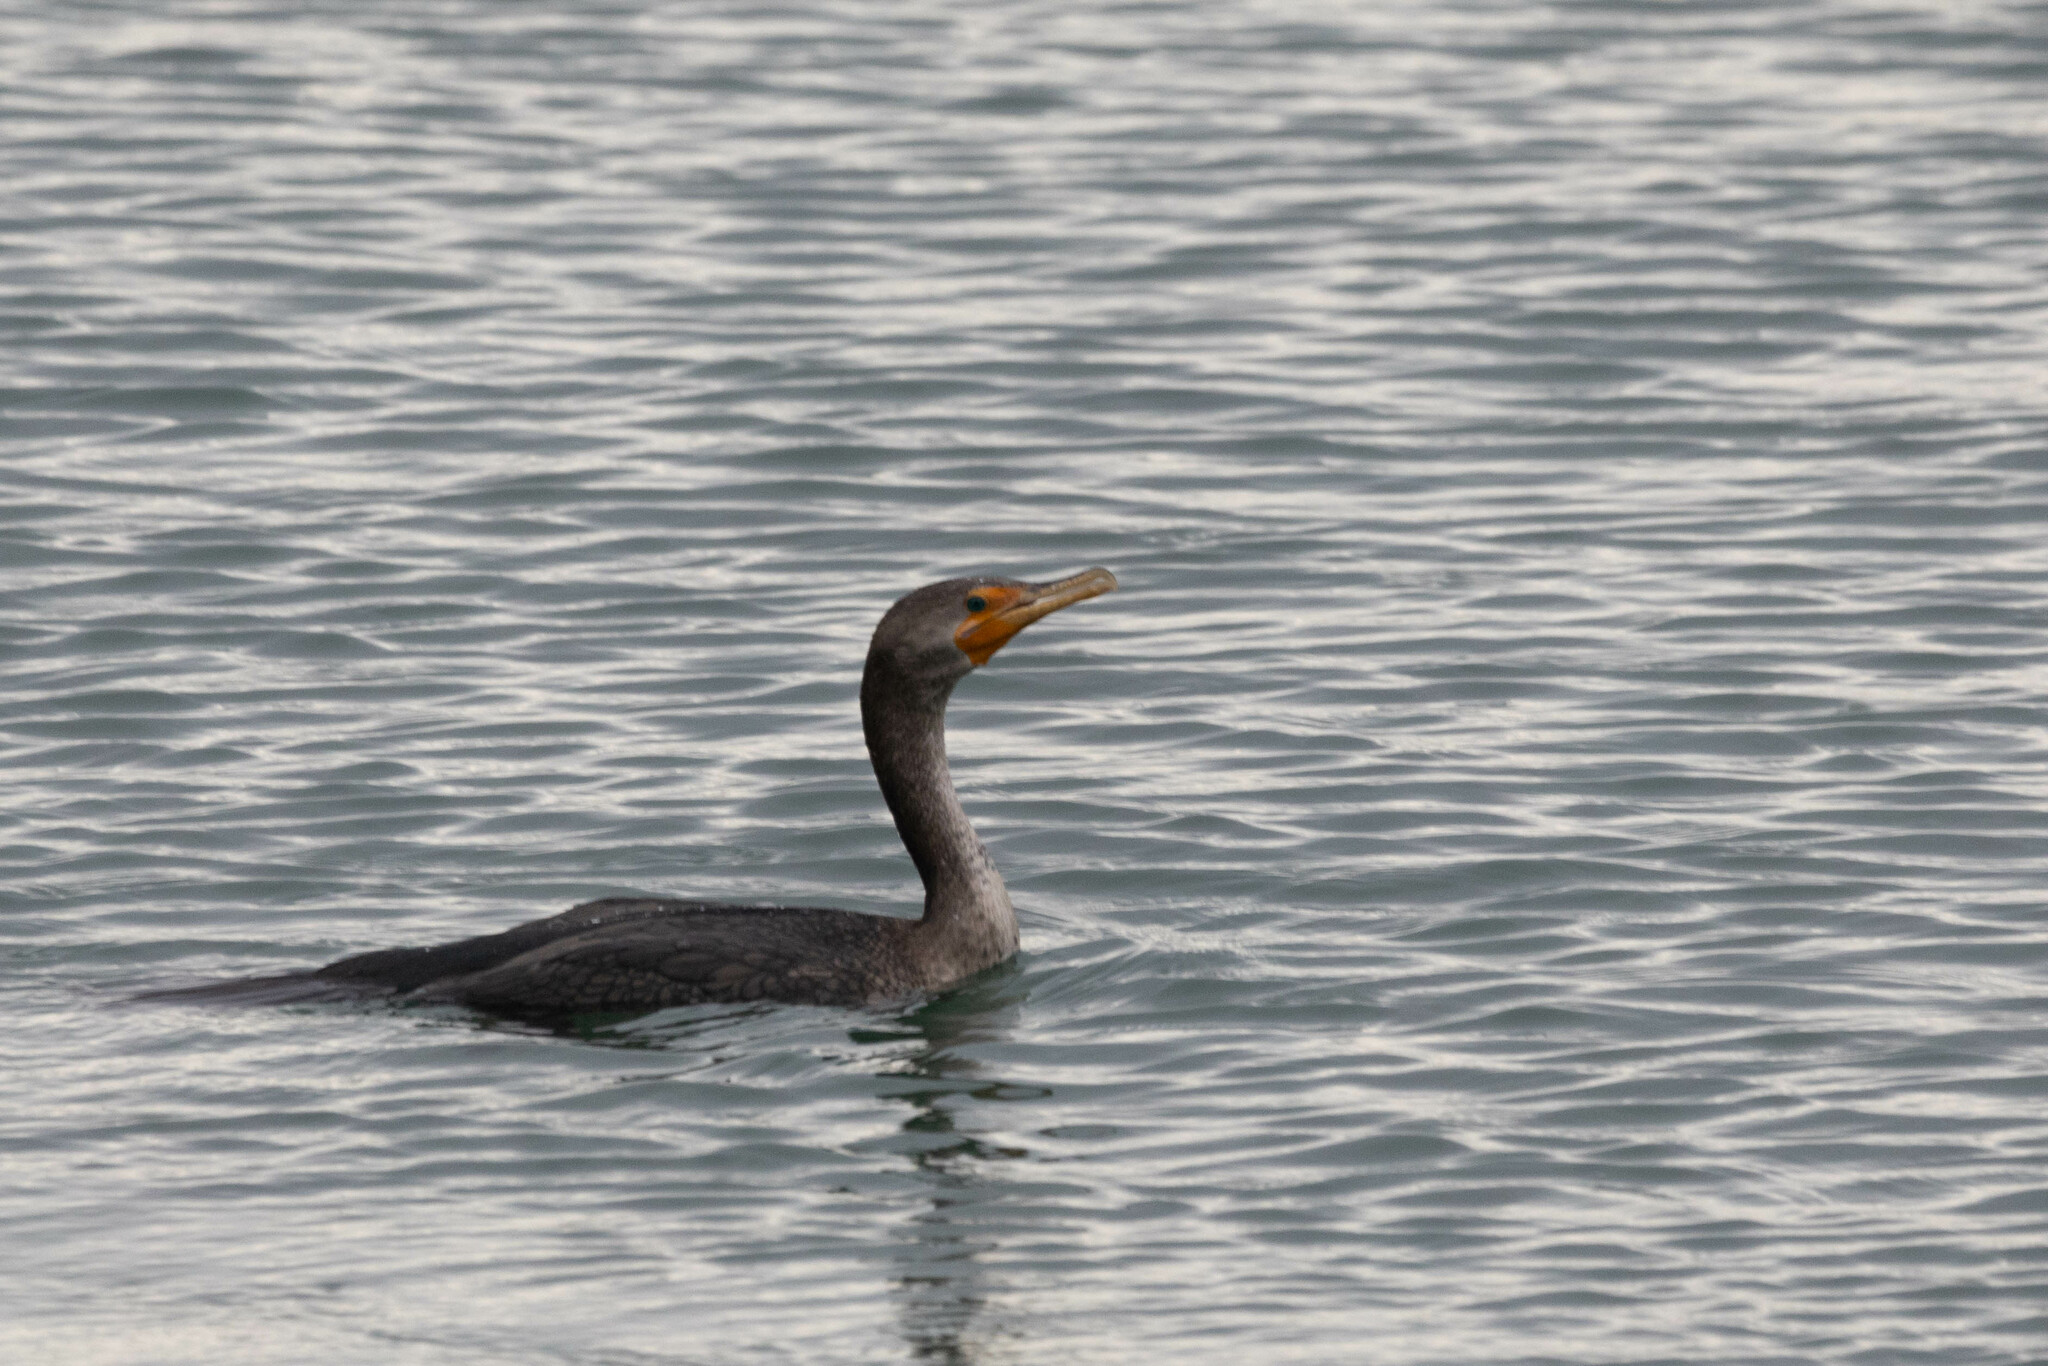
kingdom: Animalia
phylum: Chordata
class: Aves
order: Suliformes
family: Phalacrocoracidae
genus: Phalacrocorax
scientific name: Phalacrocorax auritus
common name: Double-crested cormorant
